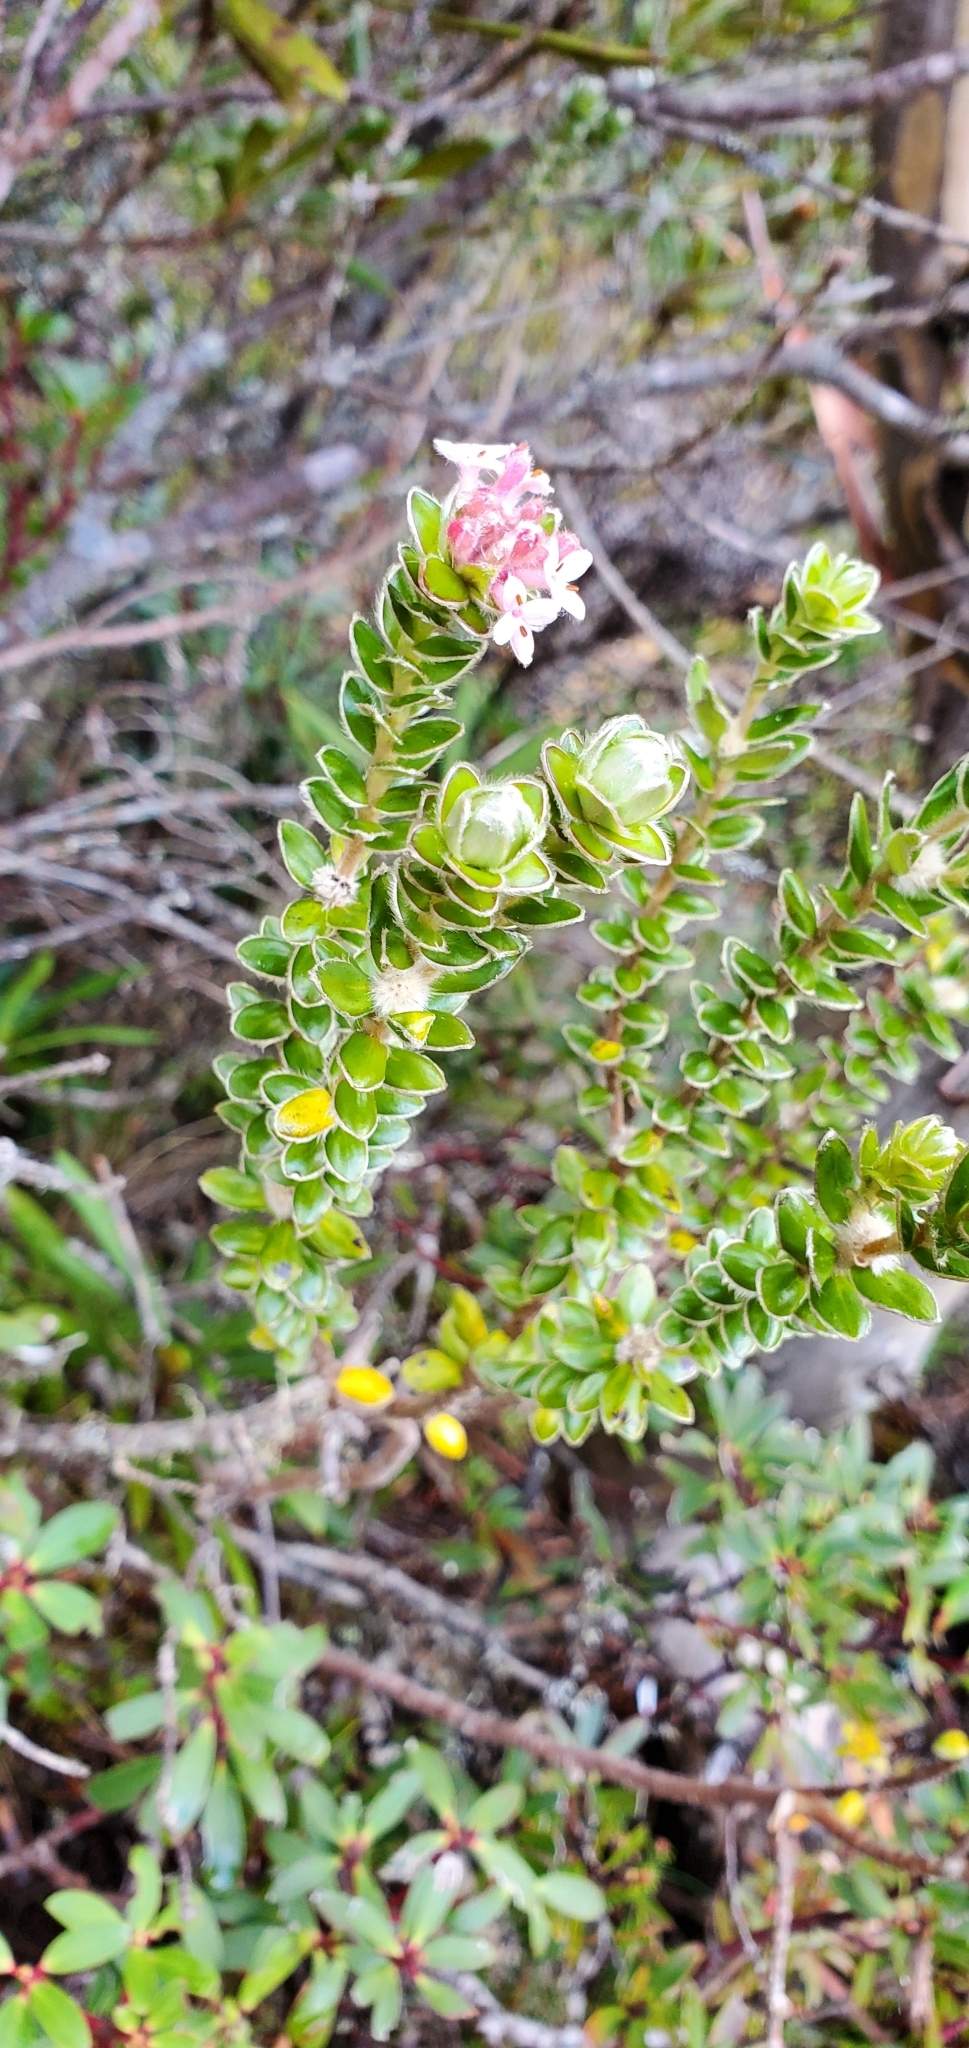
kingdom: Plantae
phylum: Tracheophyta
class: Magnoliopsida
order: Malvales
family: Thymelaeaceae
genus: Pimelea
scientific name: Pimelea nivea
